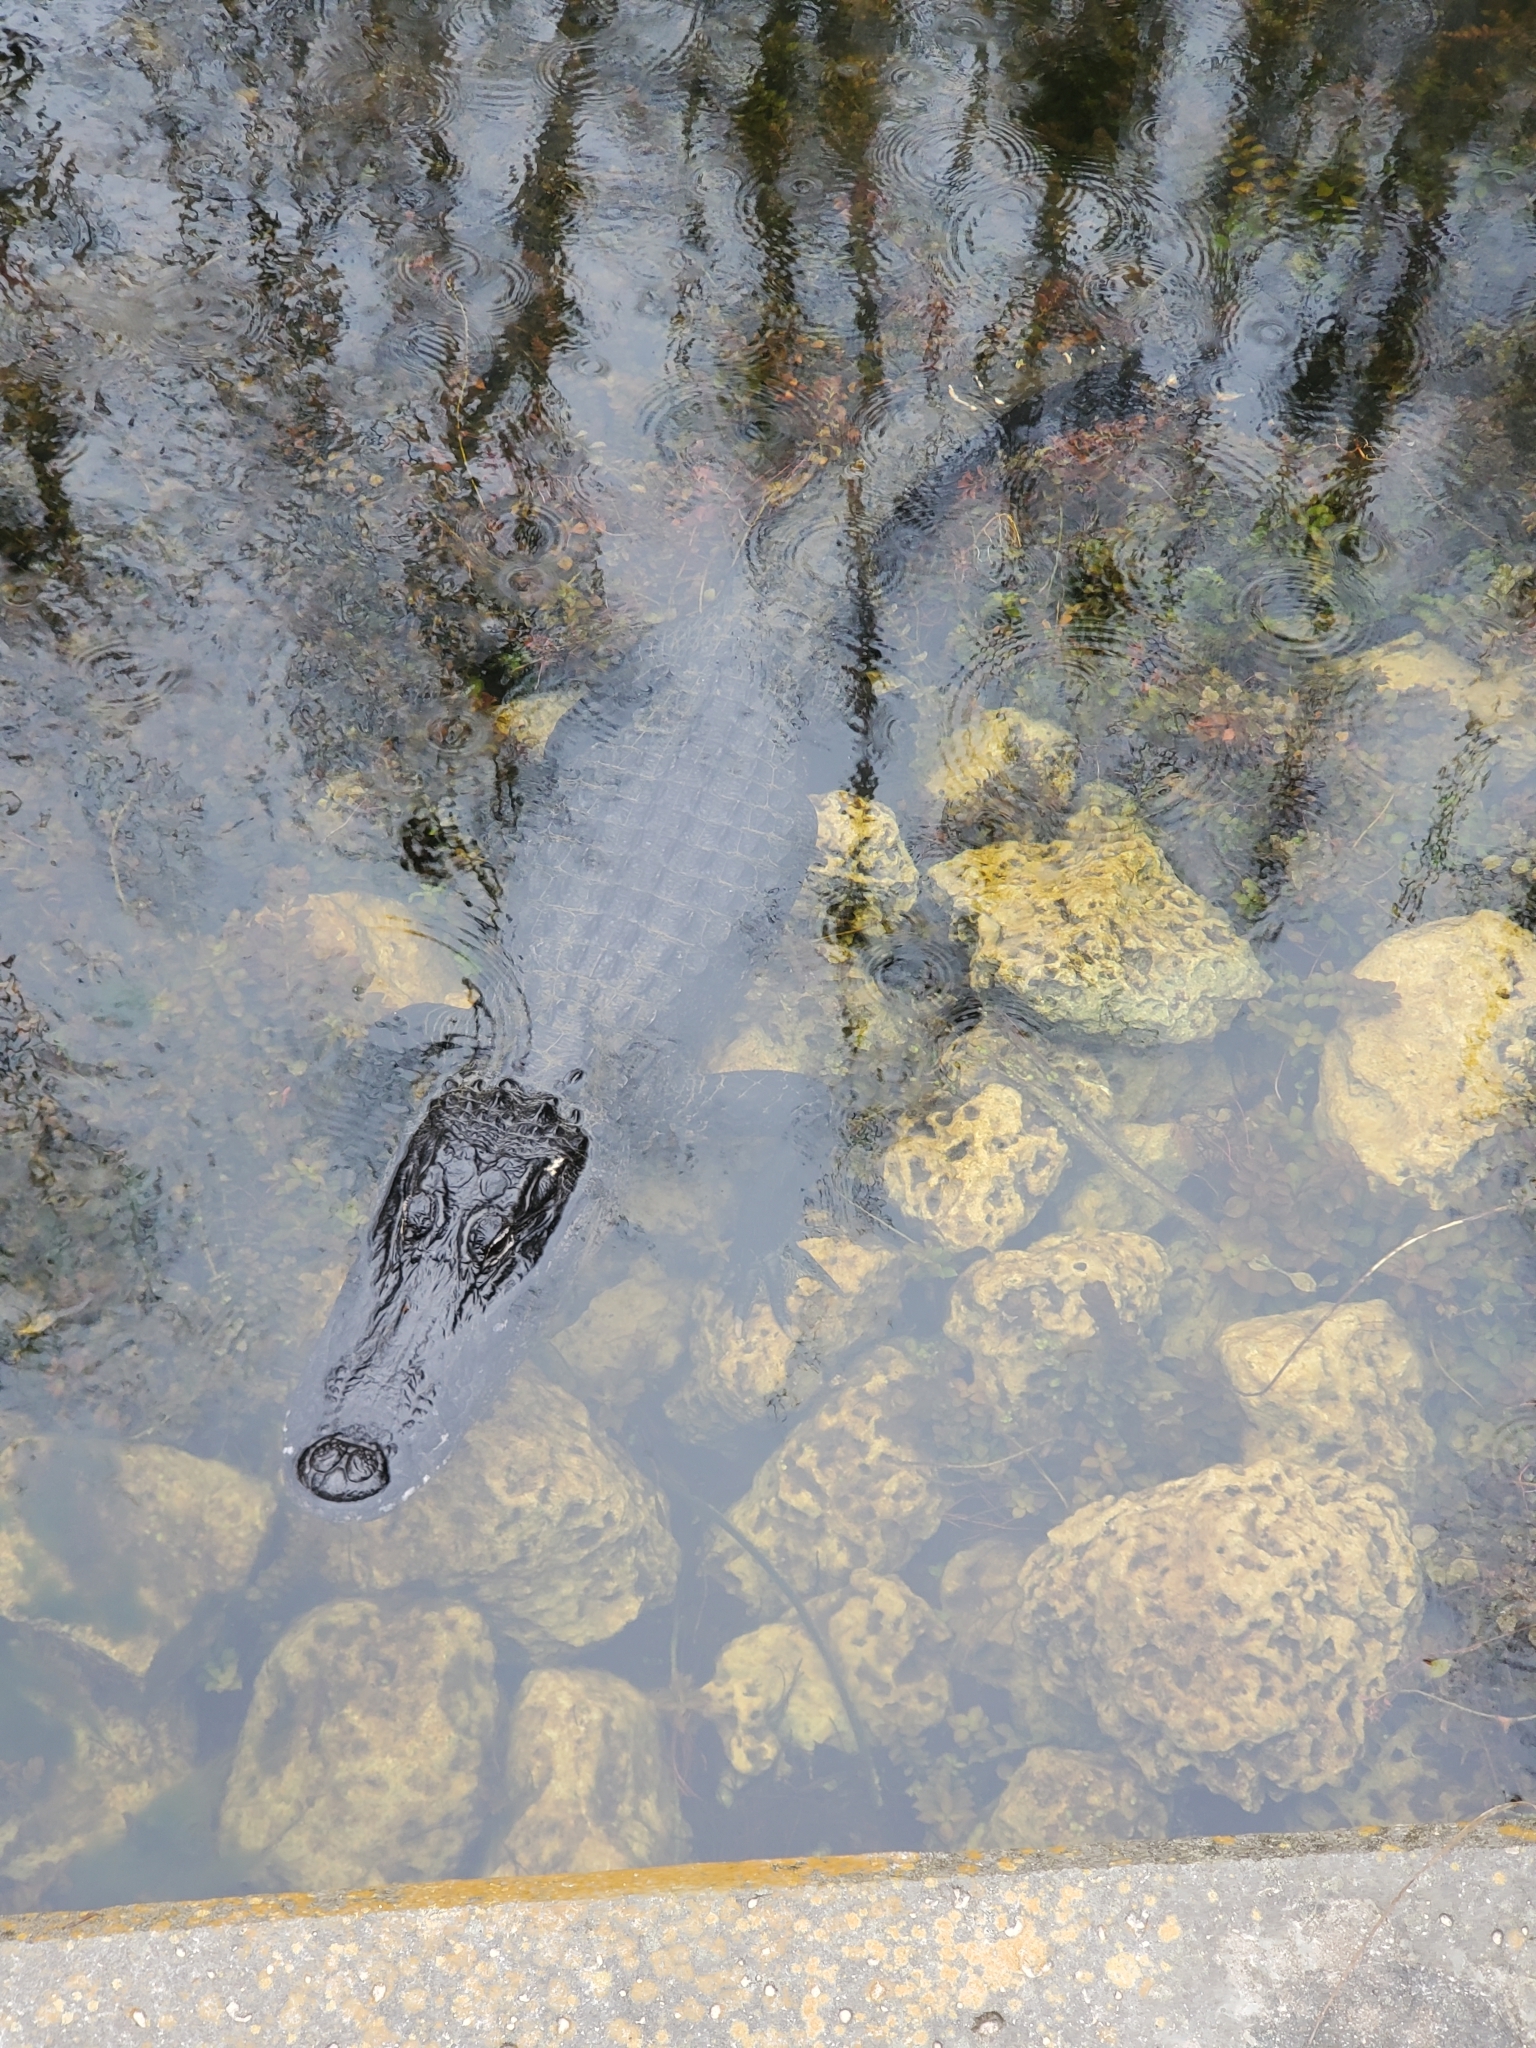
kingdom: Animalia
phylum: Chordata
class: Crocodylia
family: Alligatoridae
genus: Alligator
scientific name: Alligator mississippiensis
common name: American alligator
